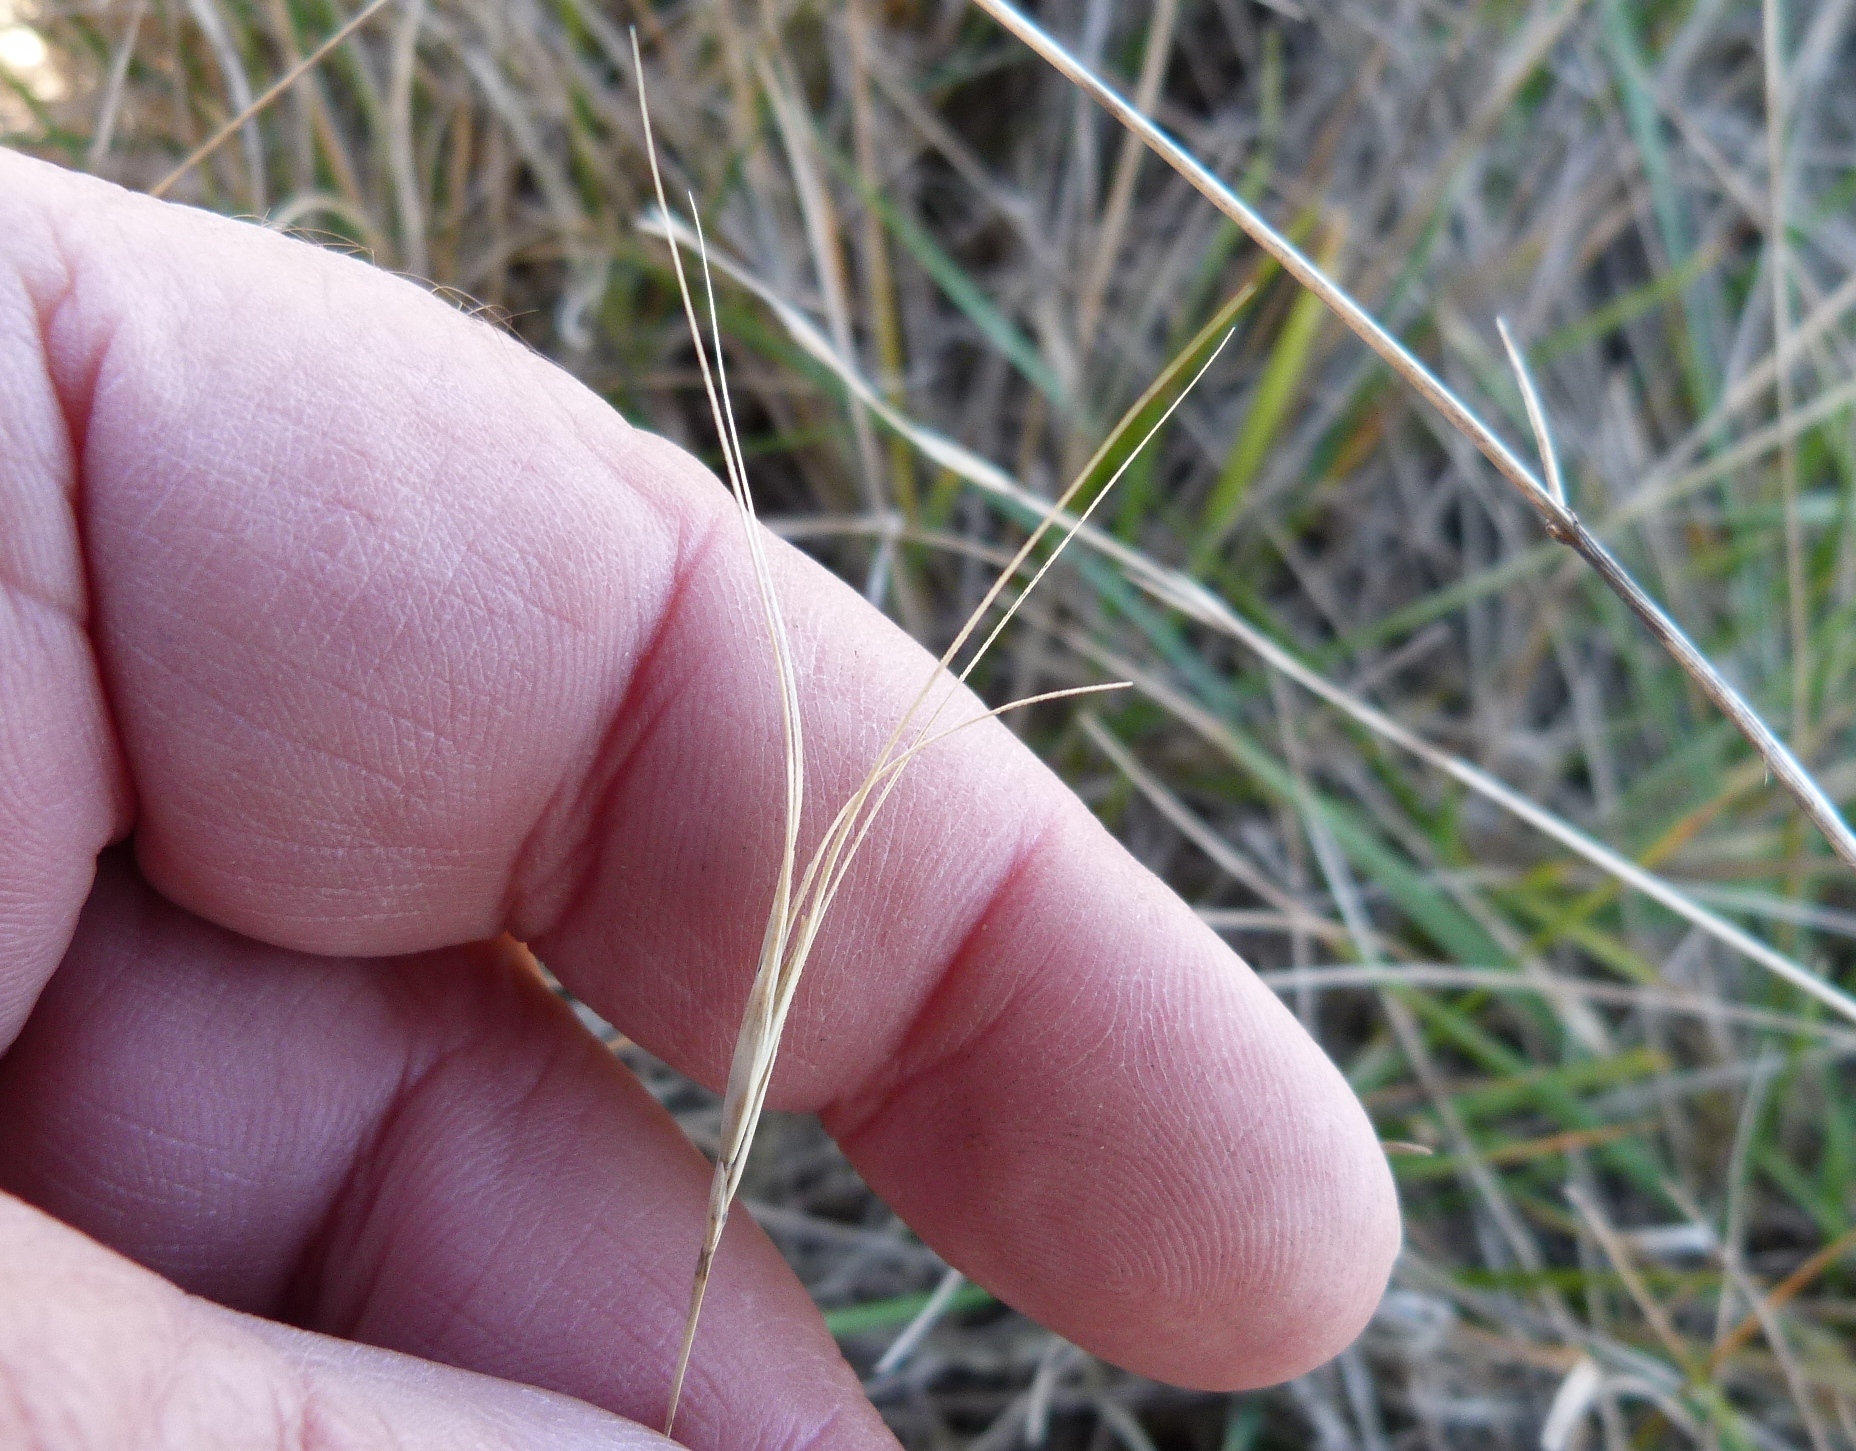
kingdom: Plantae
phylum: Tracheophyta
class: Liliopsida
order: Poales
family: Poaceae
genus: Anthosachne
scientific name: Anthosachne scabra
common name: Common wheatgrass
